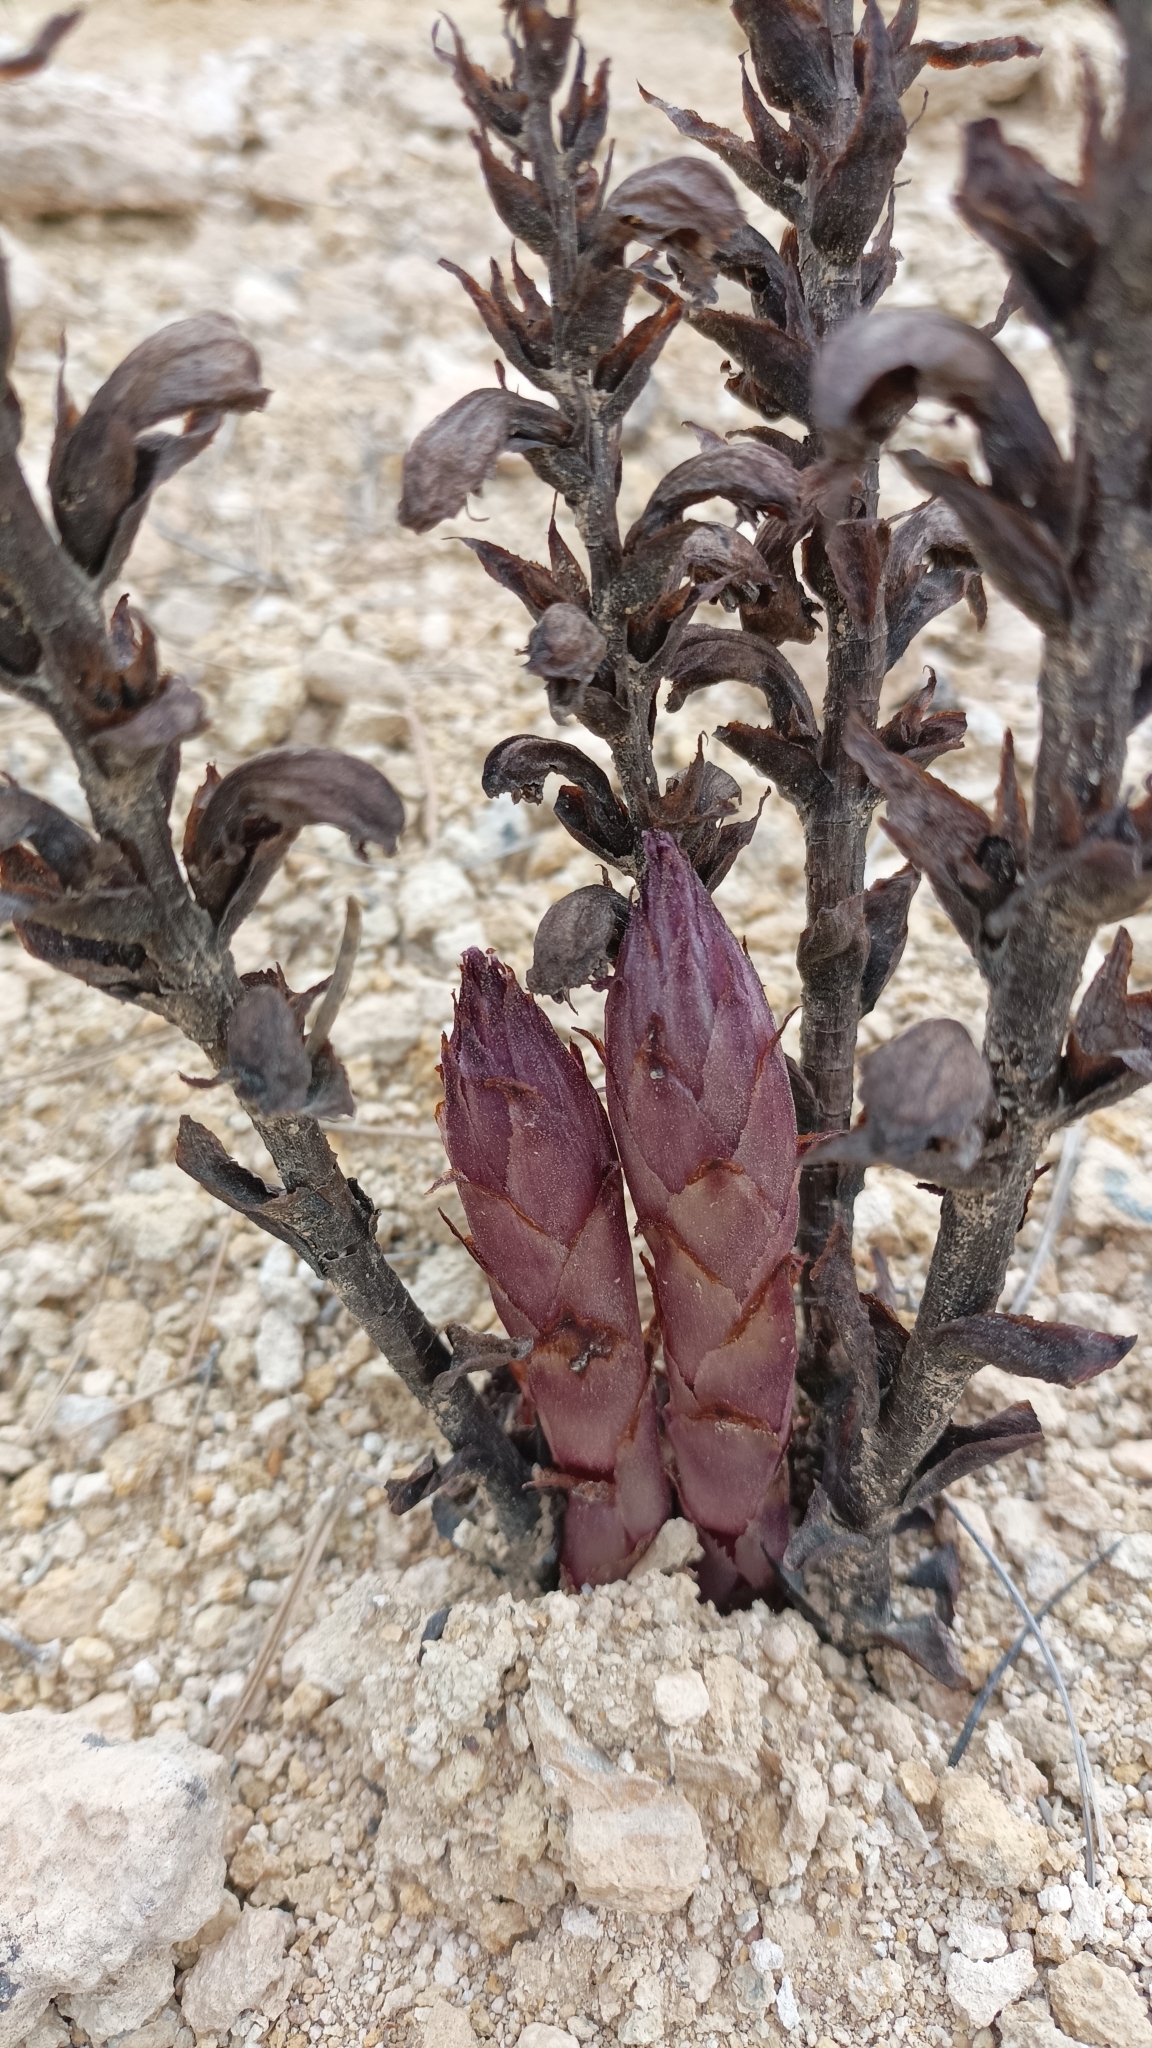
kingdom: Plantae
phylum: Tracheophyta
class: Magnoliopsida
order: Lamiales
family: Orobanchaceae
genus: Boulardia
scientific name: Boulardia latisquama
